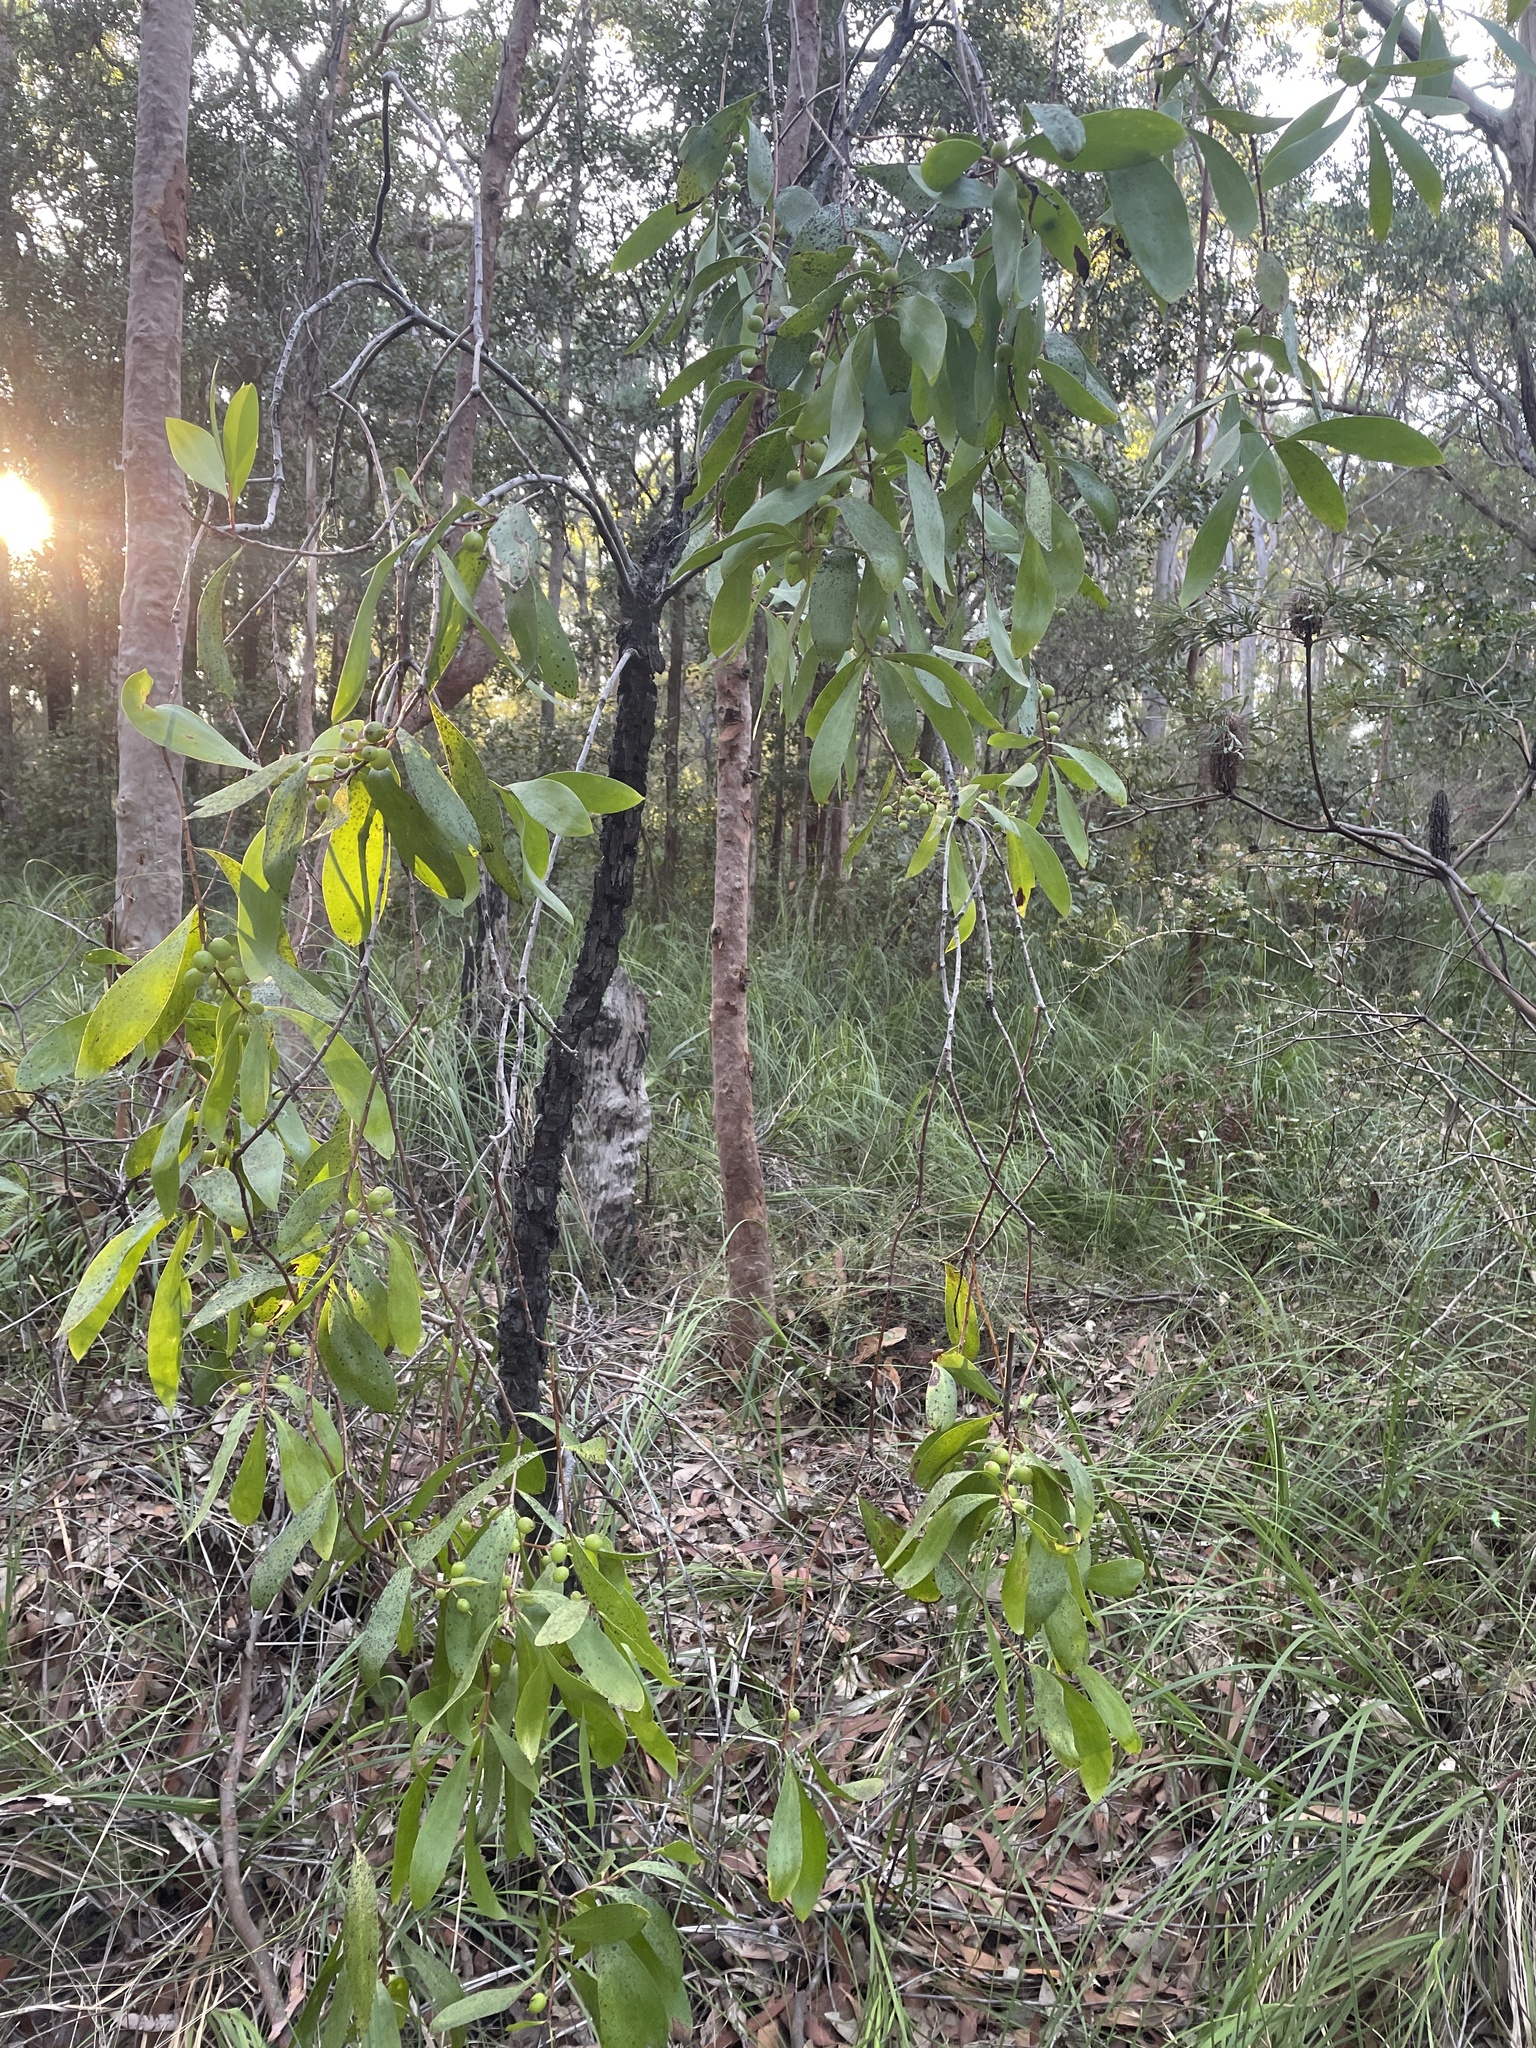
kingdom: Plantae
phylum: Tracheophyta
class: Magnoliopsida
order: Proteales
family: Proteaceae
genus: Persoonia
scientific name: Persoonia levis
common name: Smooth geebung
